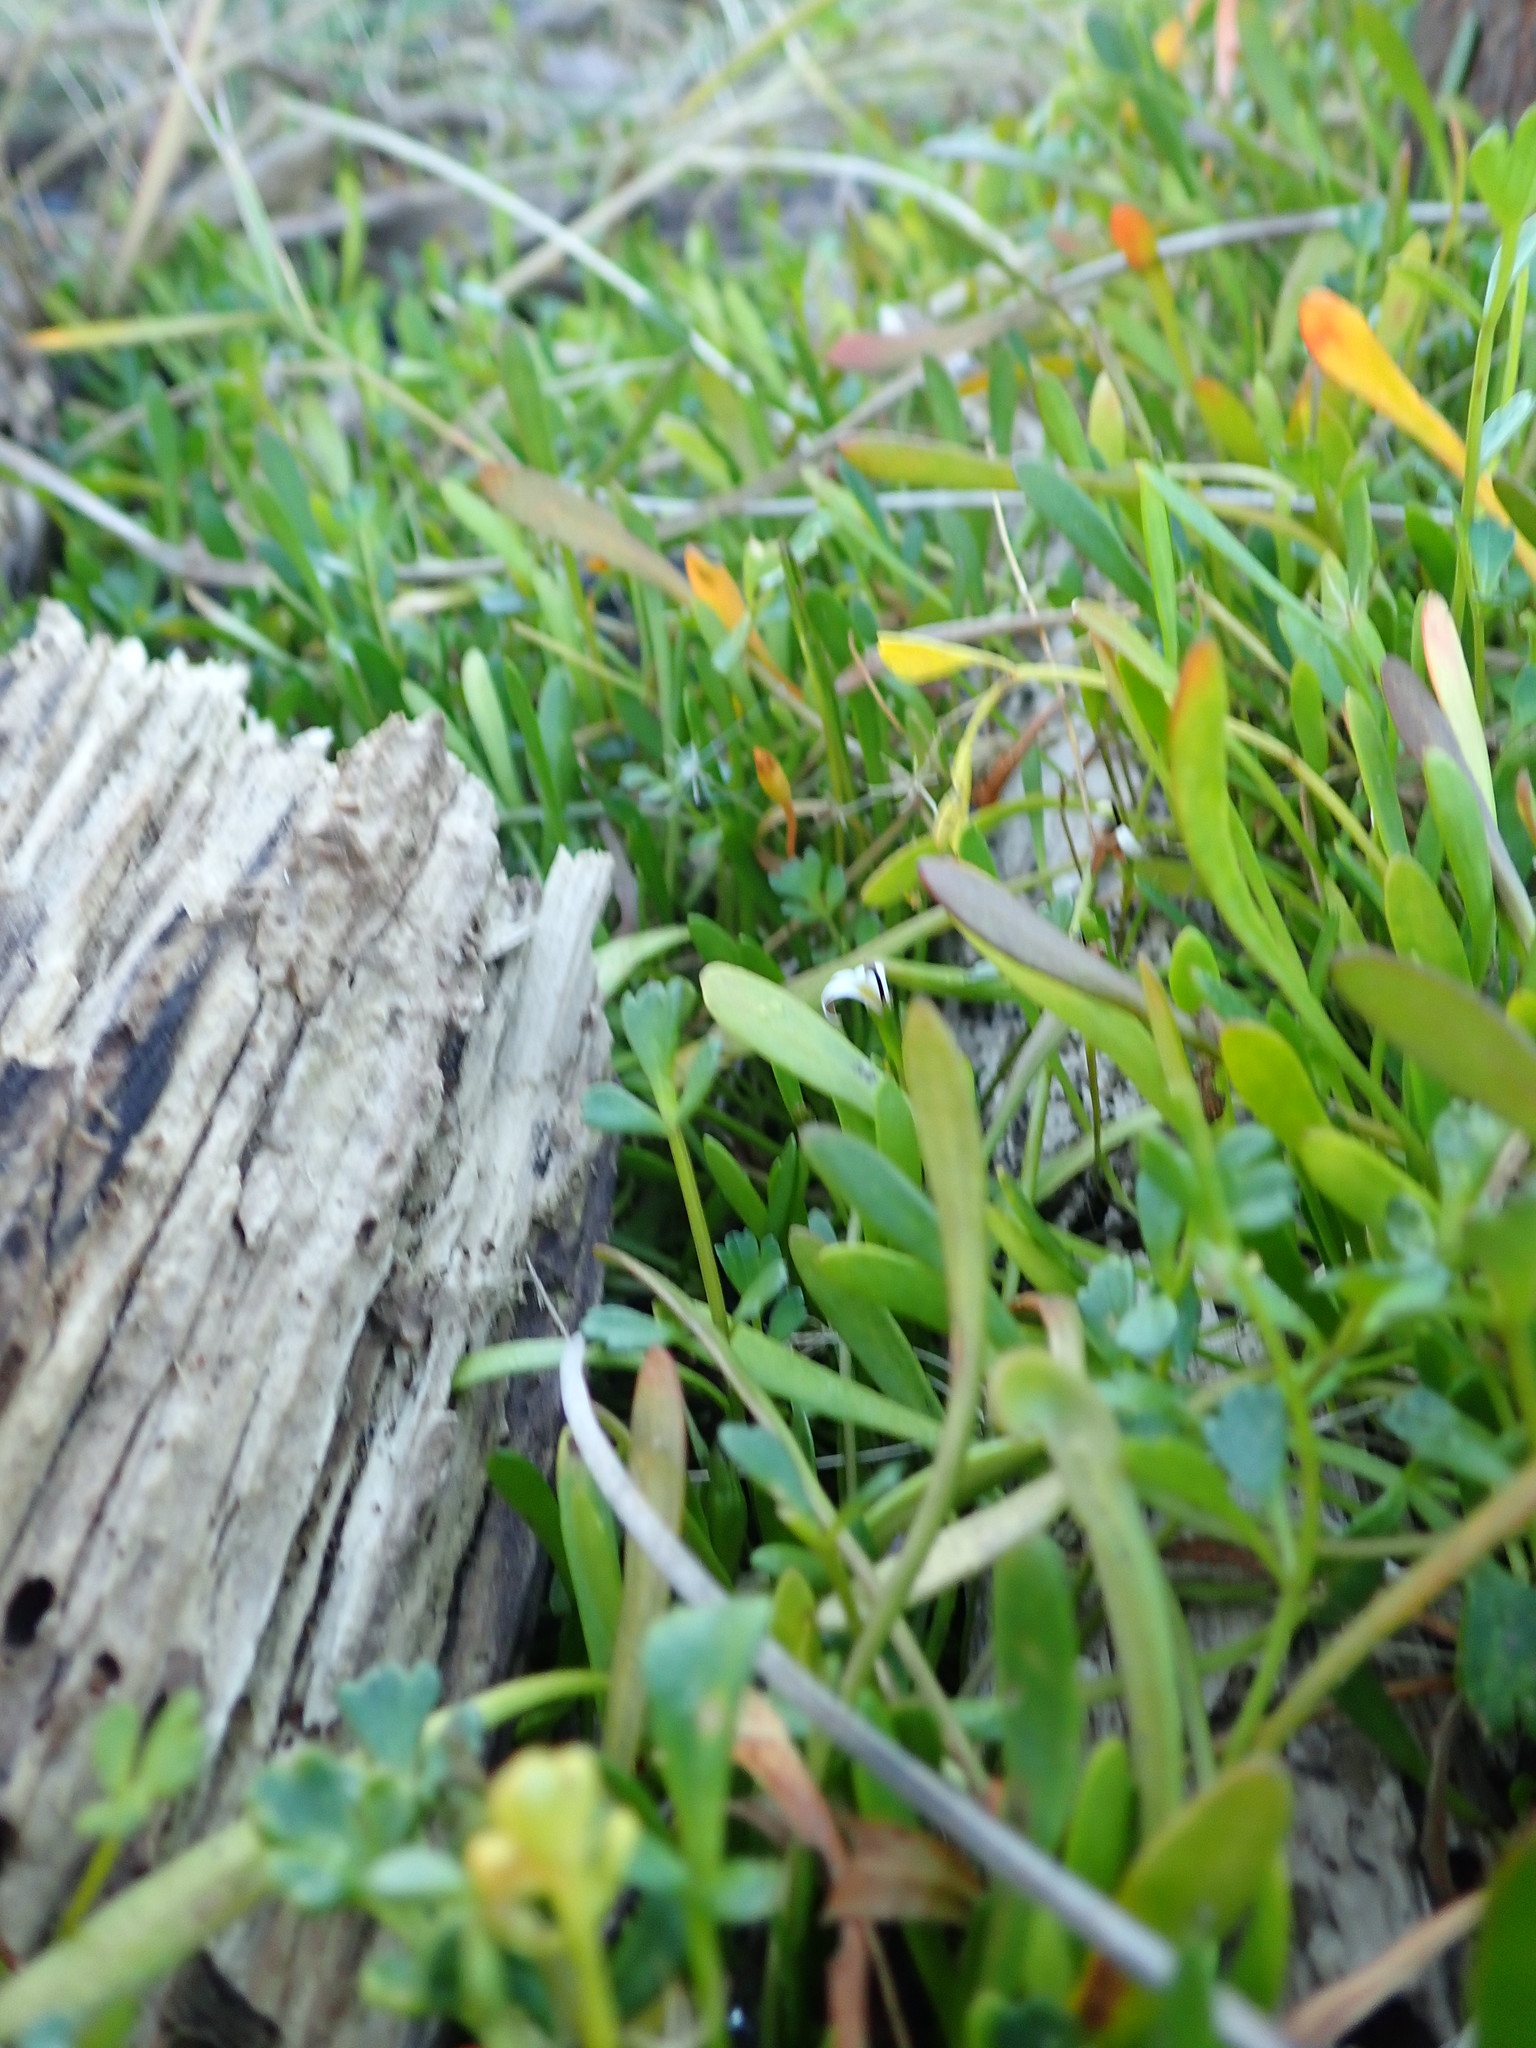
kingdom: Plantae
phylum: Tracheophyta
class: Magnoliopsida
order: Apiales
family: Apiaceae
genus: Apium
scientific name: Apium prostratum
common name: Prostrate marshwort
